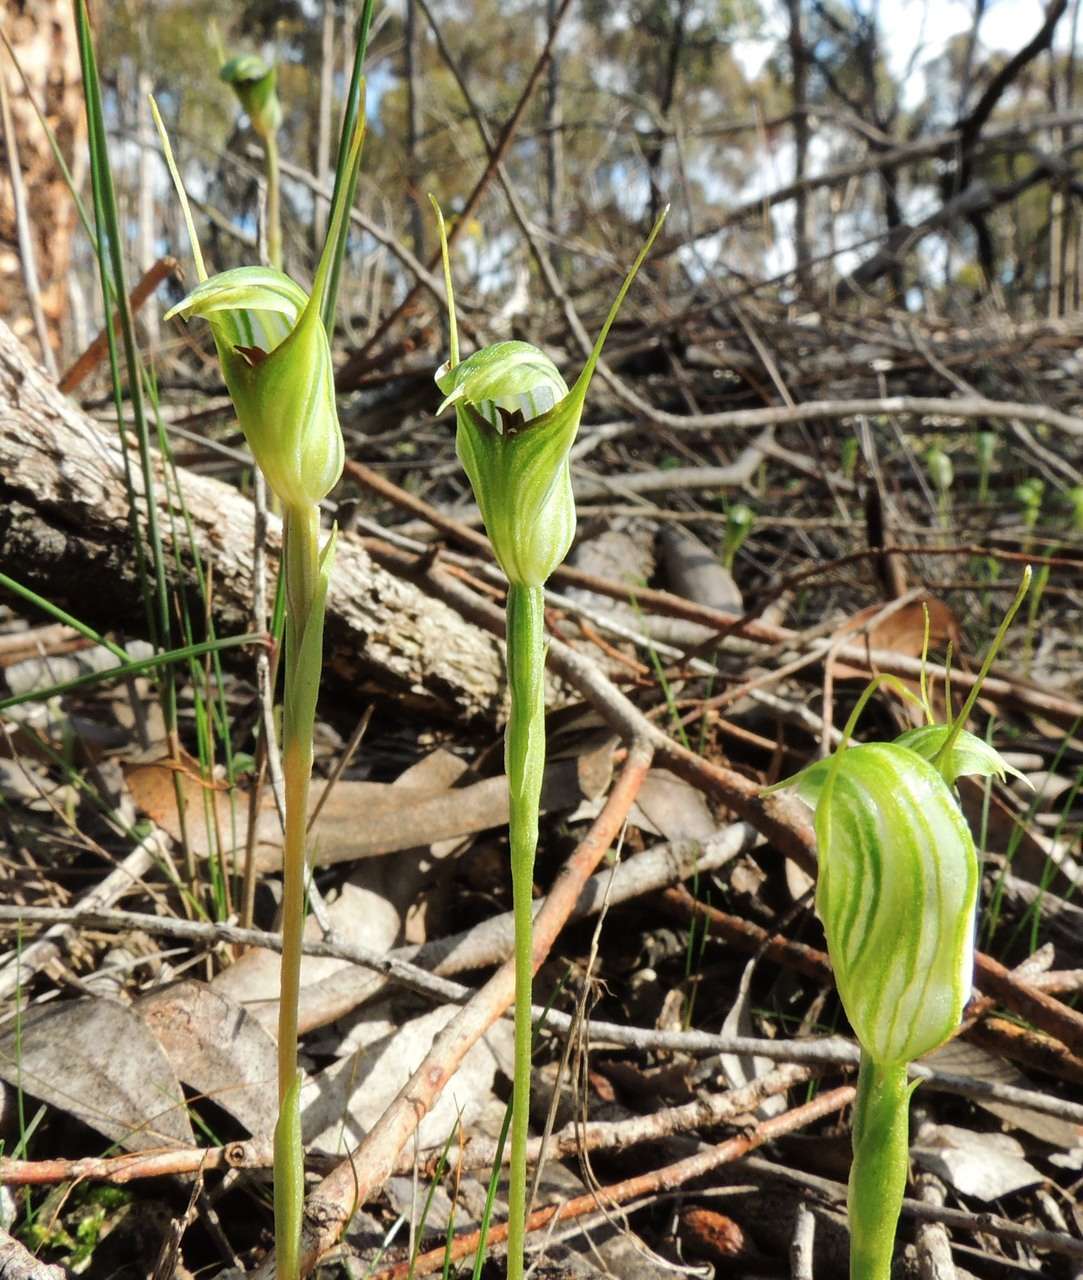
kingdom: Plantae
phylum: Tracheophyta
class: Liliopsida
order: Asparagales
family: Orchidaceae
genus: Pterostylis
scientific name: Pterostylis concinna
